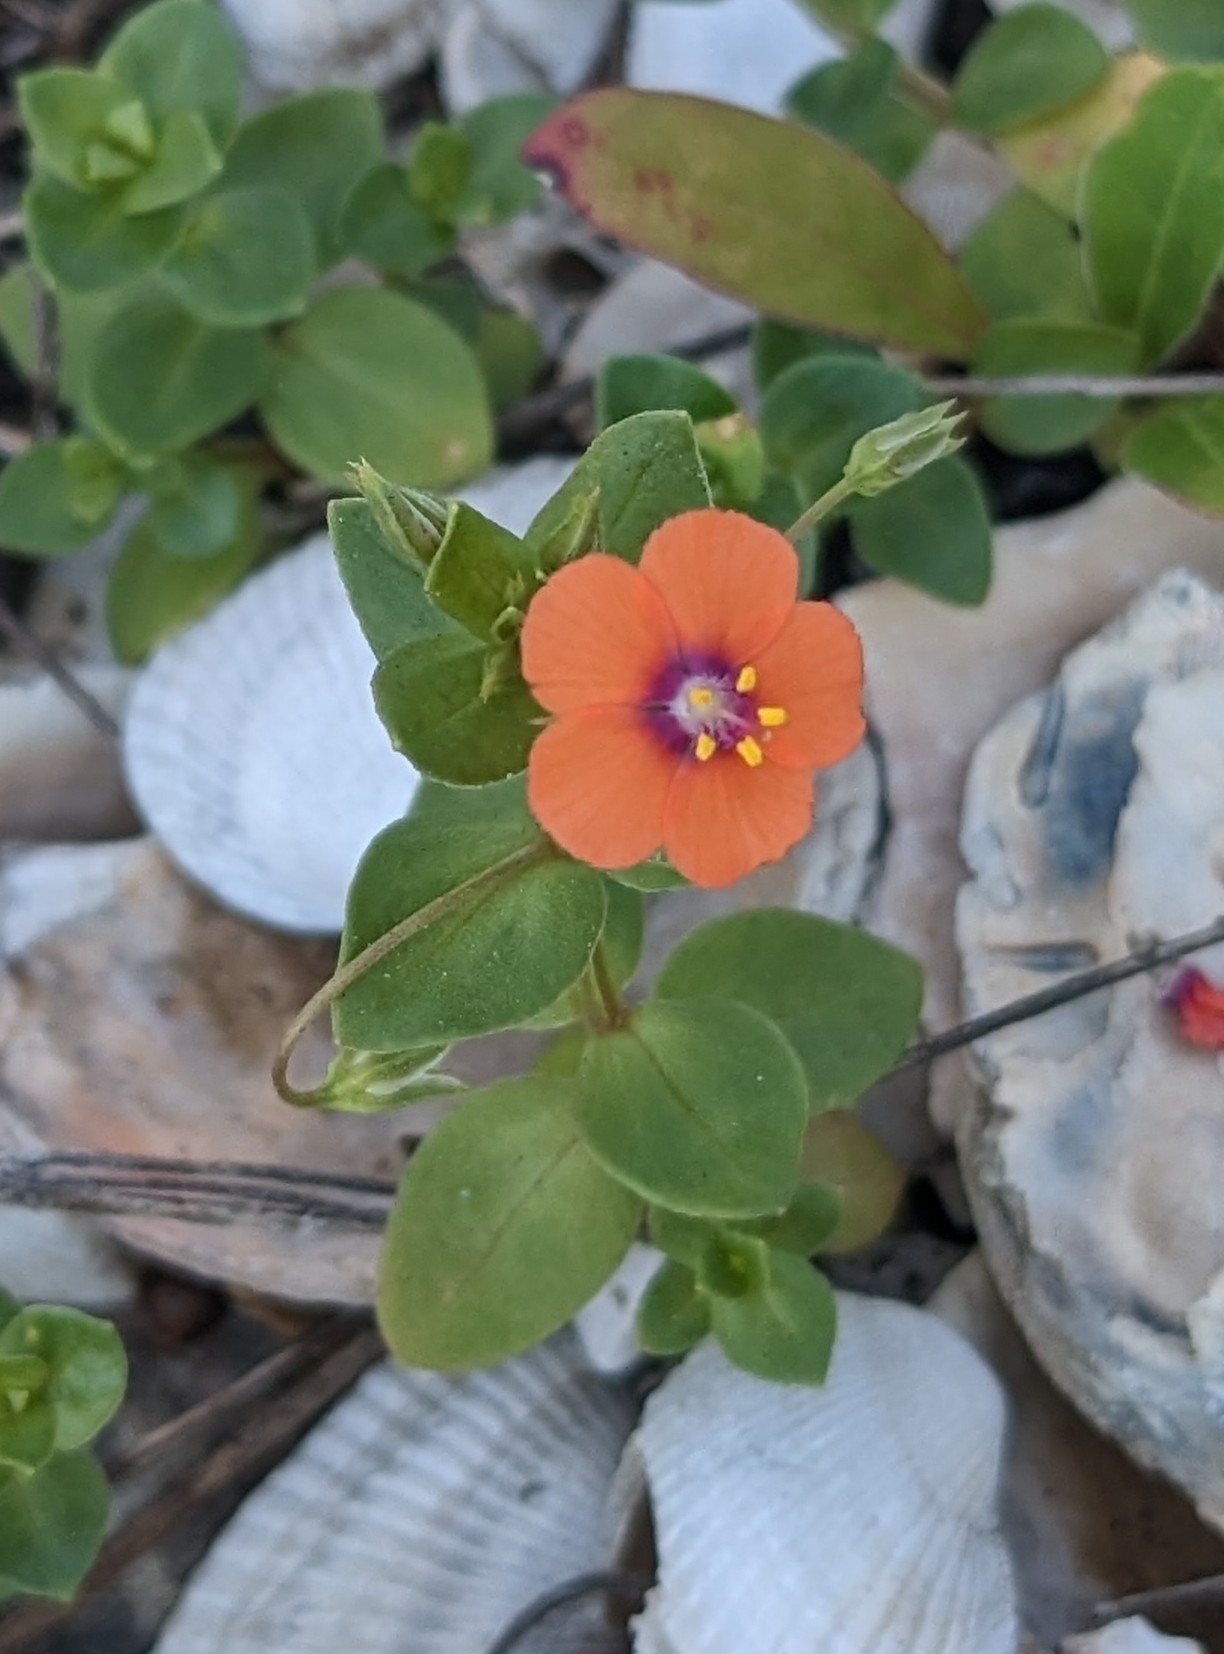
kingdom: Plantae
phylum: Tracheophyta
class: Magnoliopsida
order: Ericales
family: Primulaceae
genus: Lysimachia
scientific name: Lysimachia arvensis
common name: Scarlet pimpernel
